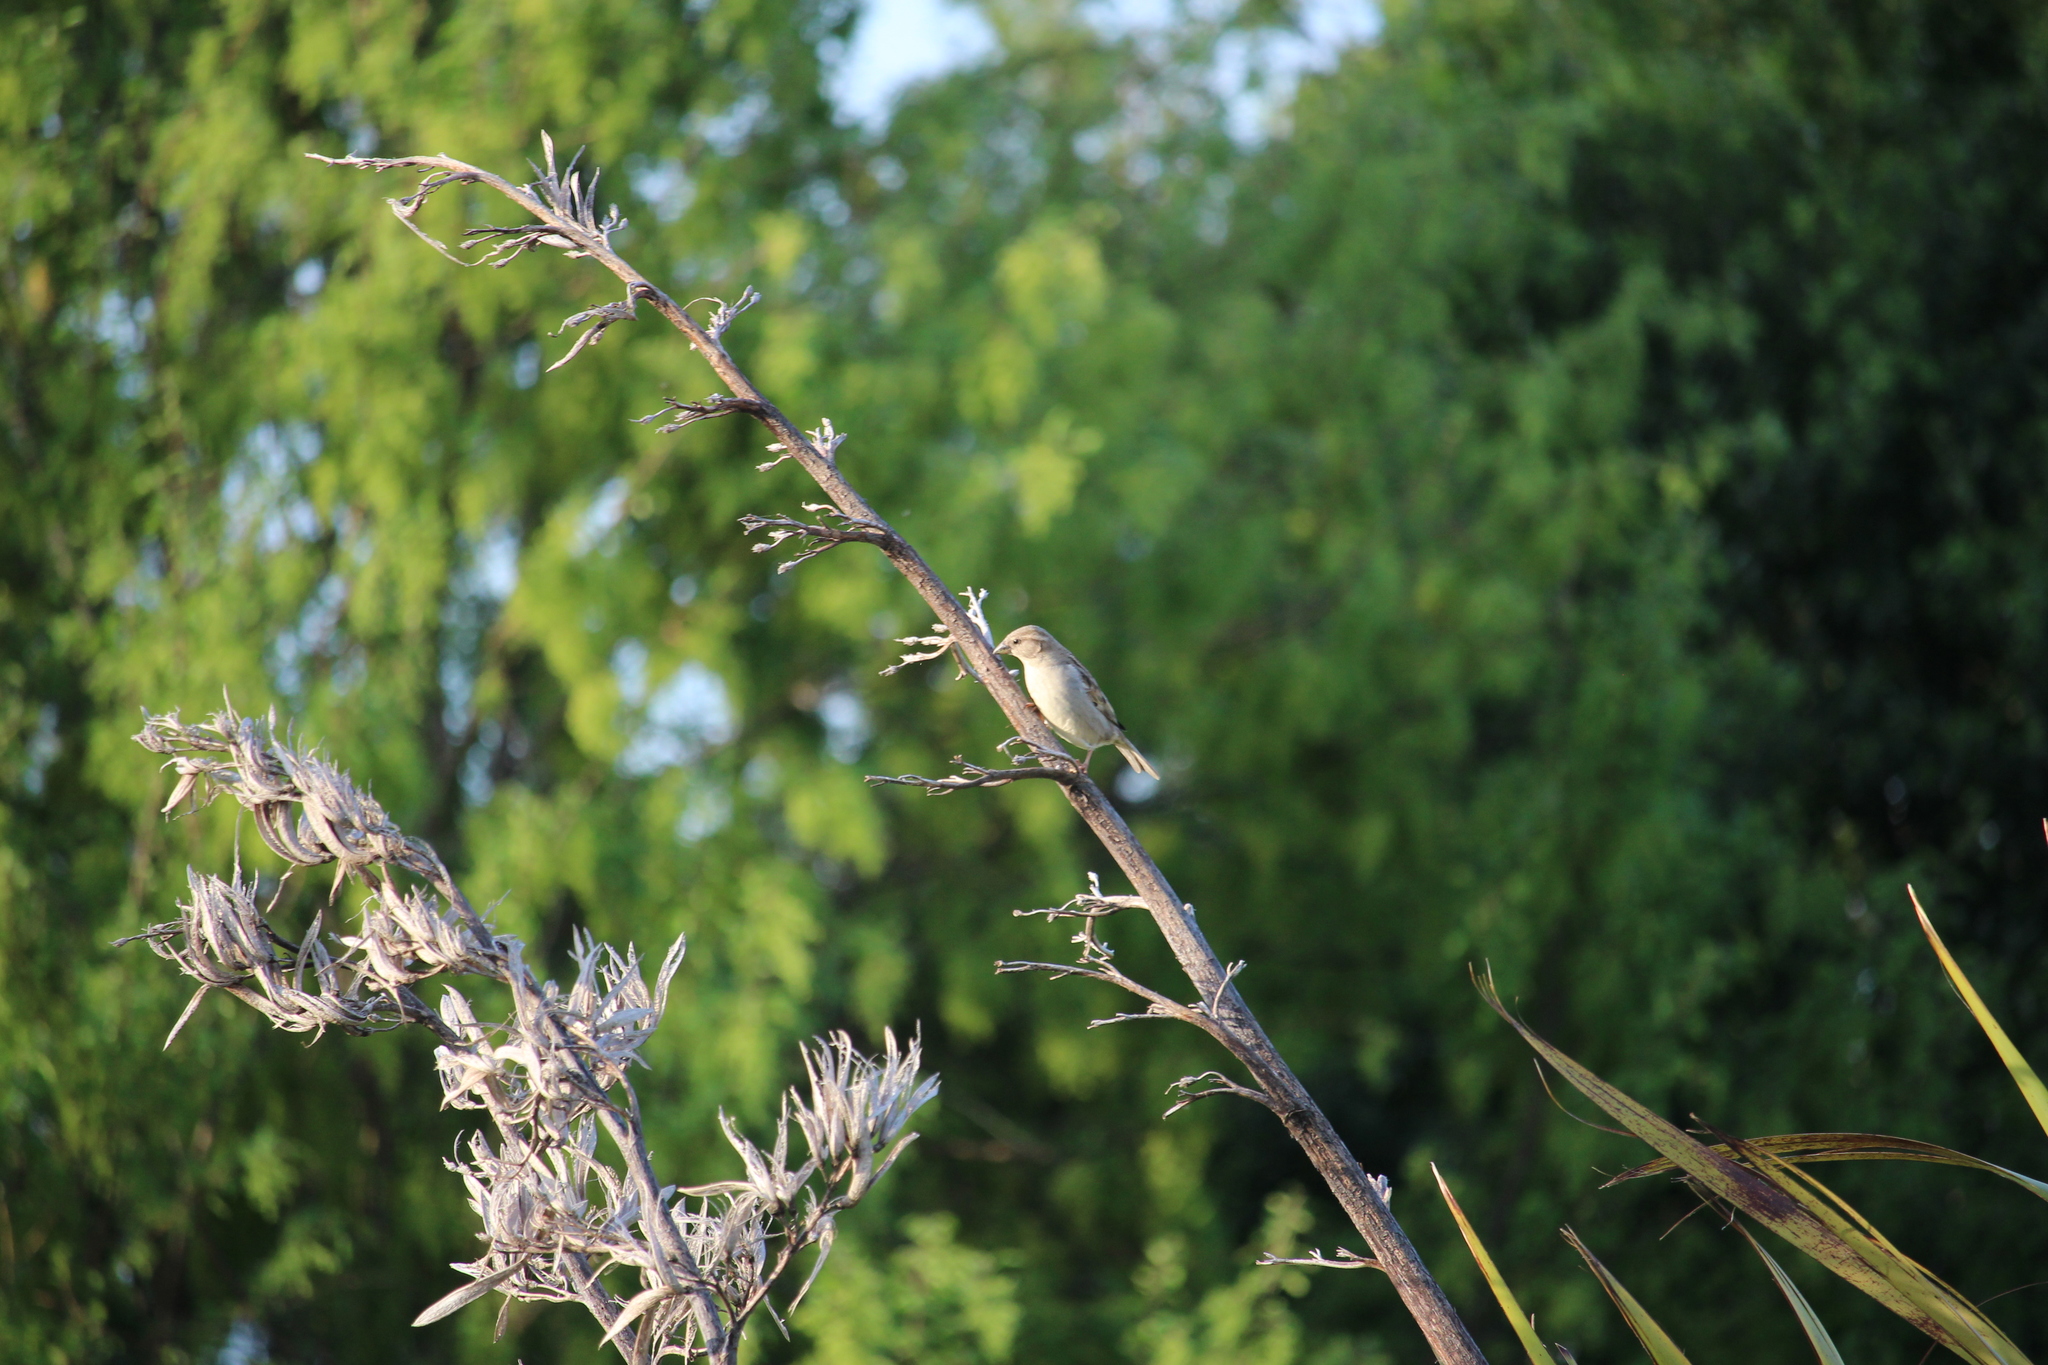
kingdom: Animalia
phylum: Chordata
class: Aves
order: Passeriformes
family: Passeridae
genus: Passer
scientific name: Passer domesticus
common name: House sparrow
